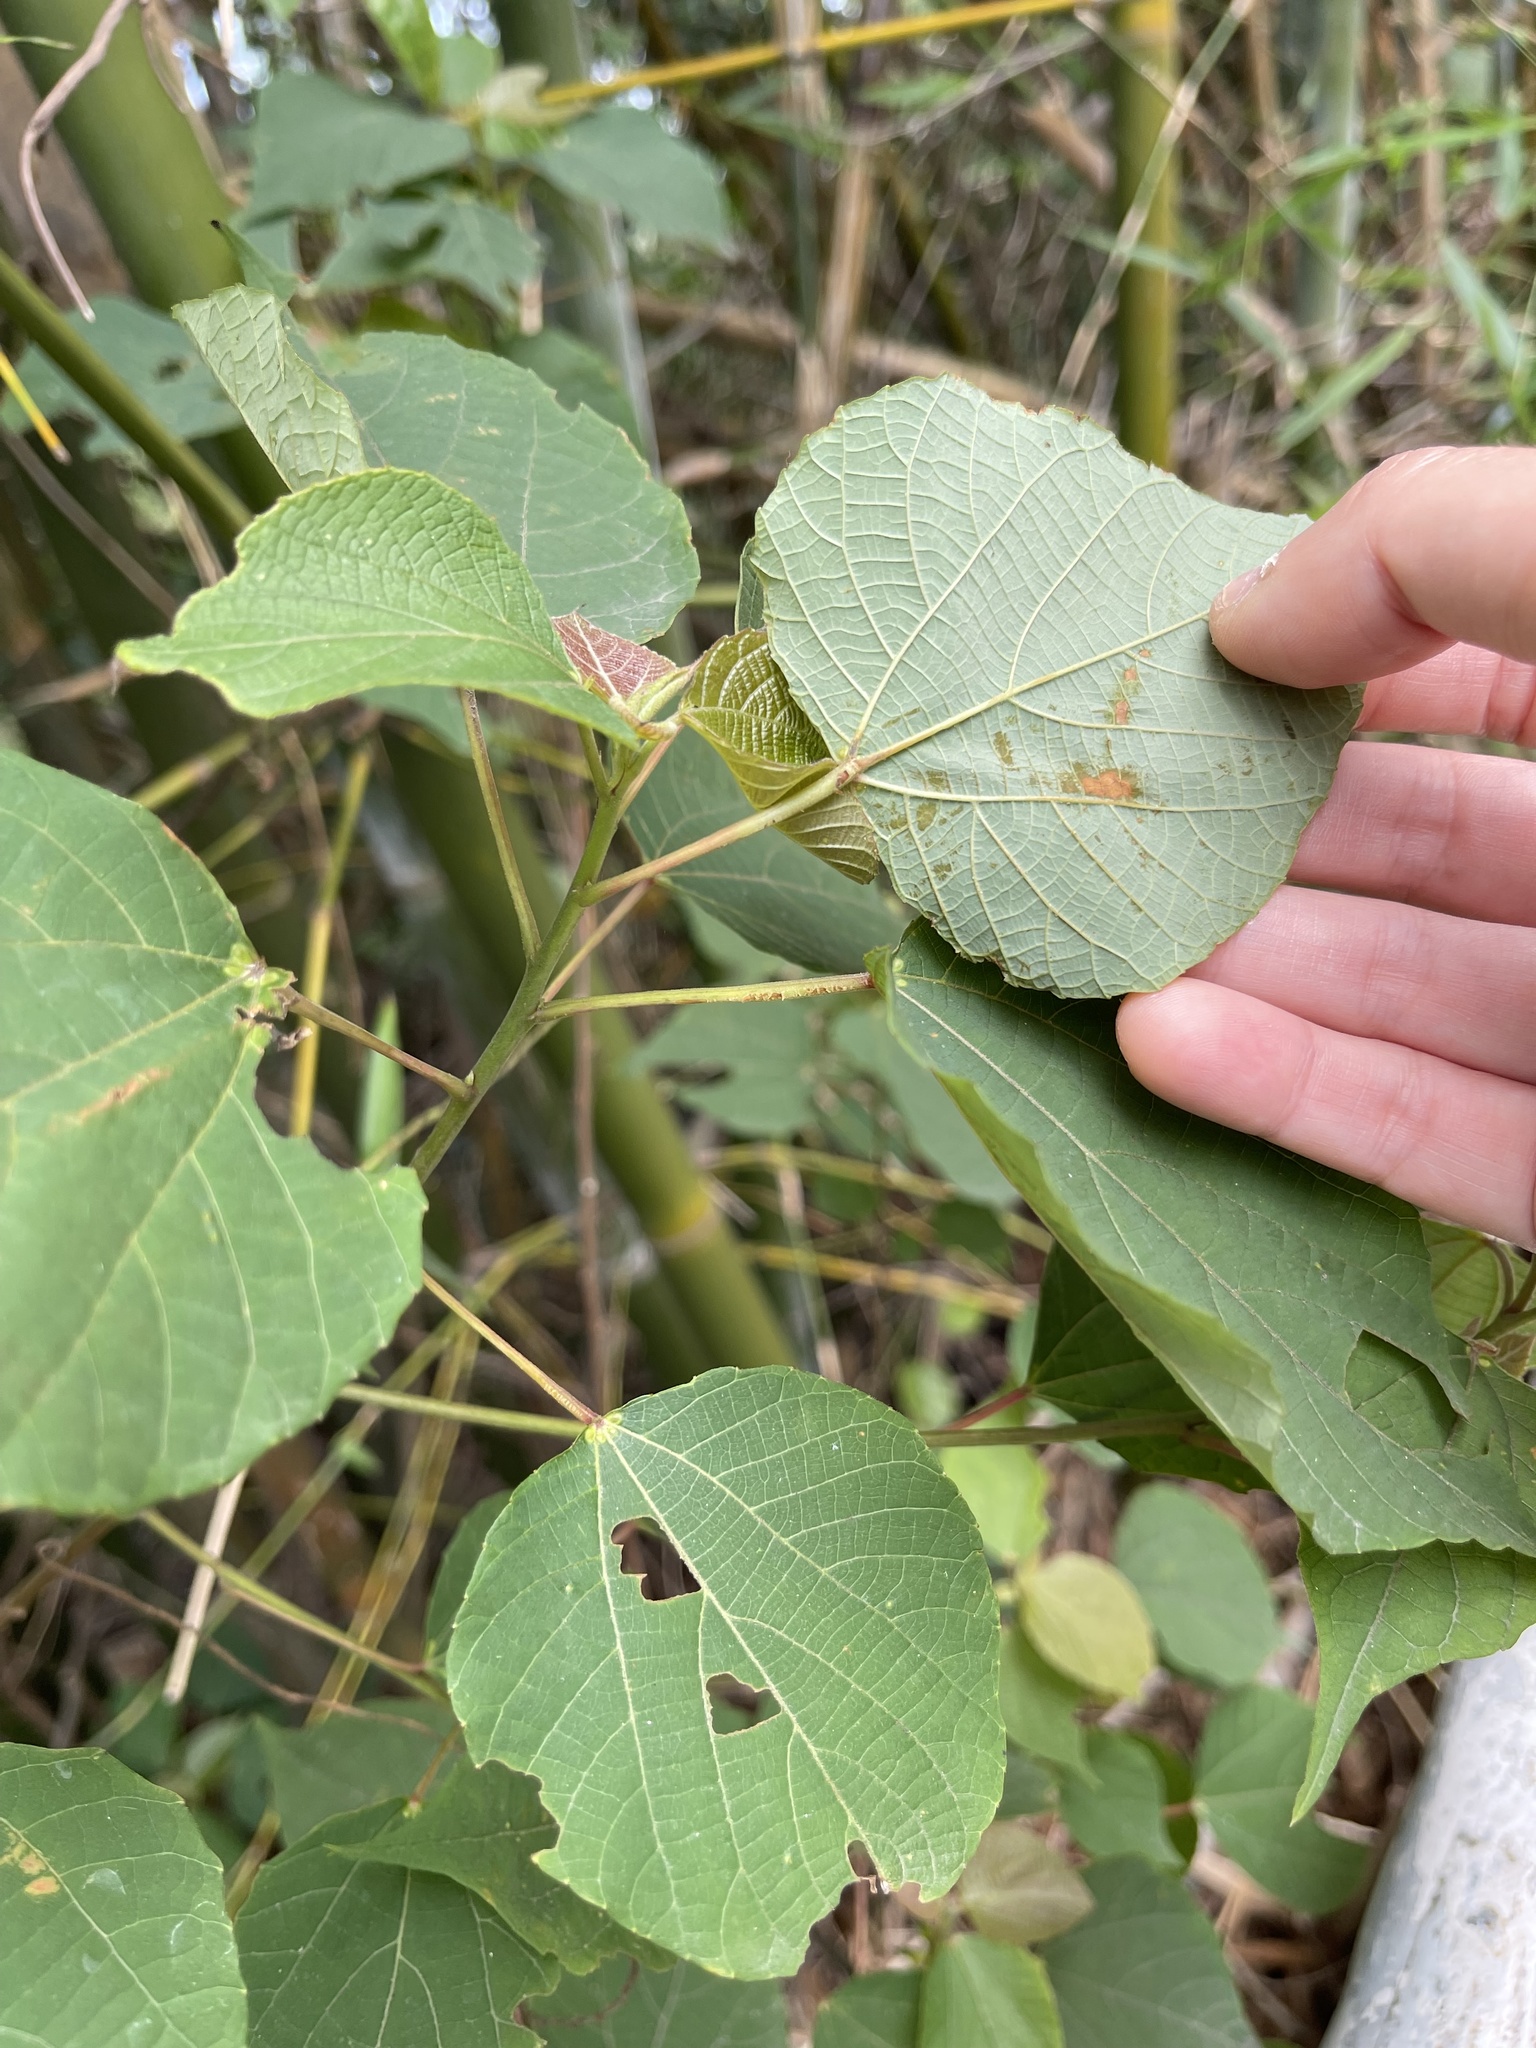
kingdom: Plantae
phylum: Tracheophyta
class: Magnoliopsida
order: Malpighiales
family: Euphorbiaceae
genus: Alchornea
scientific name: Alchornea trewioides
